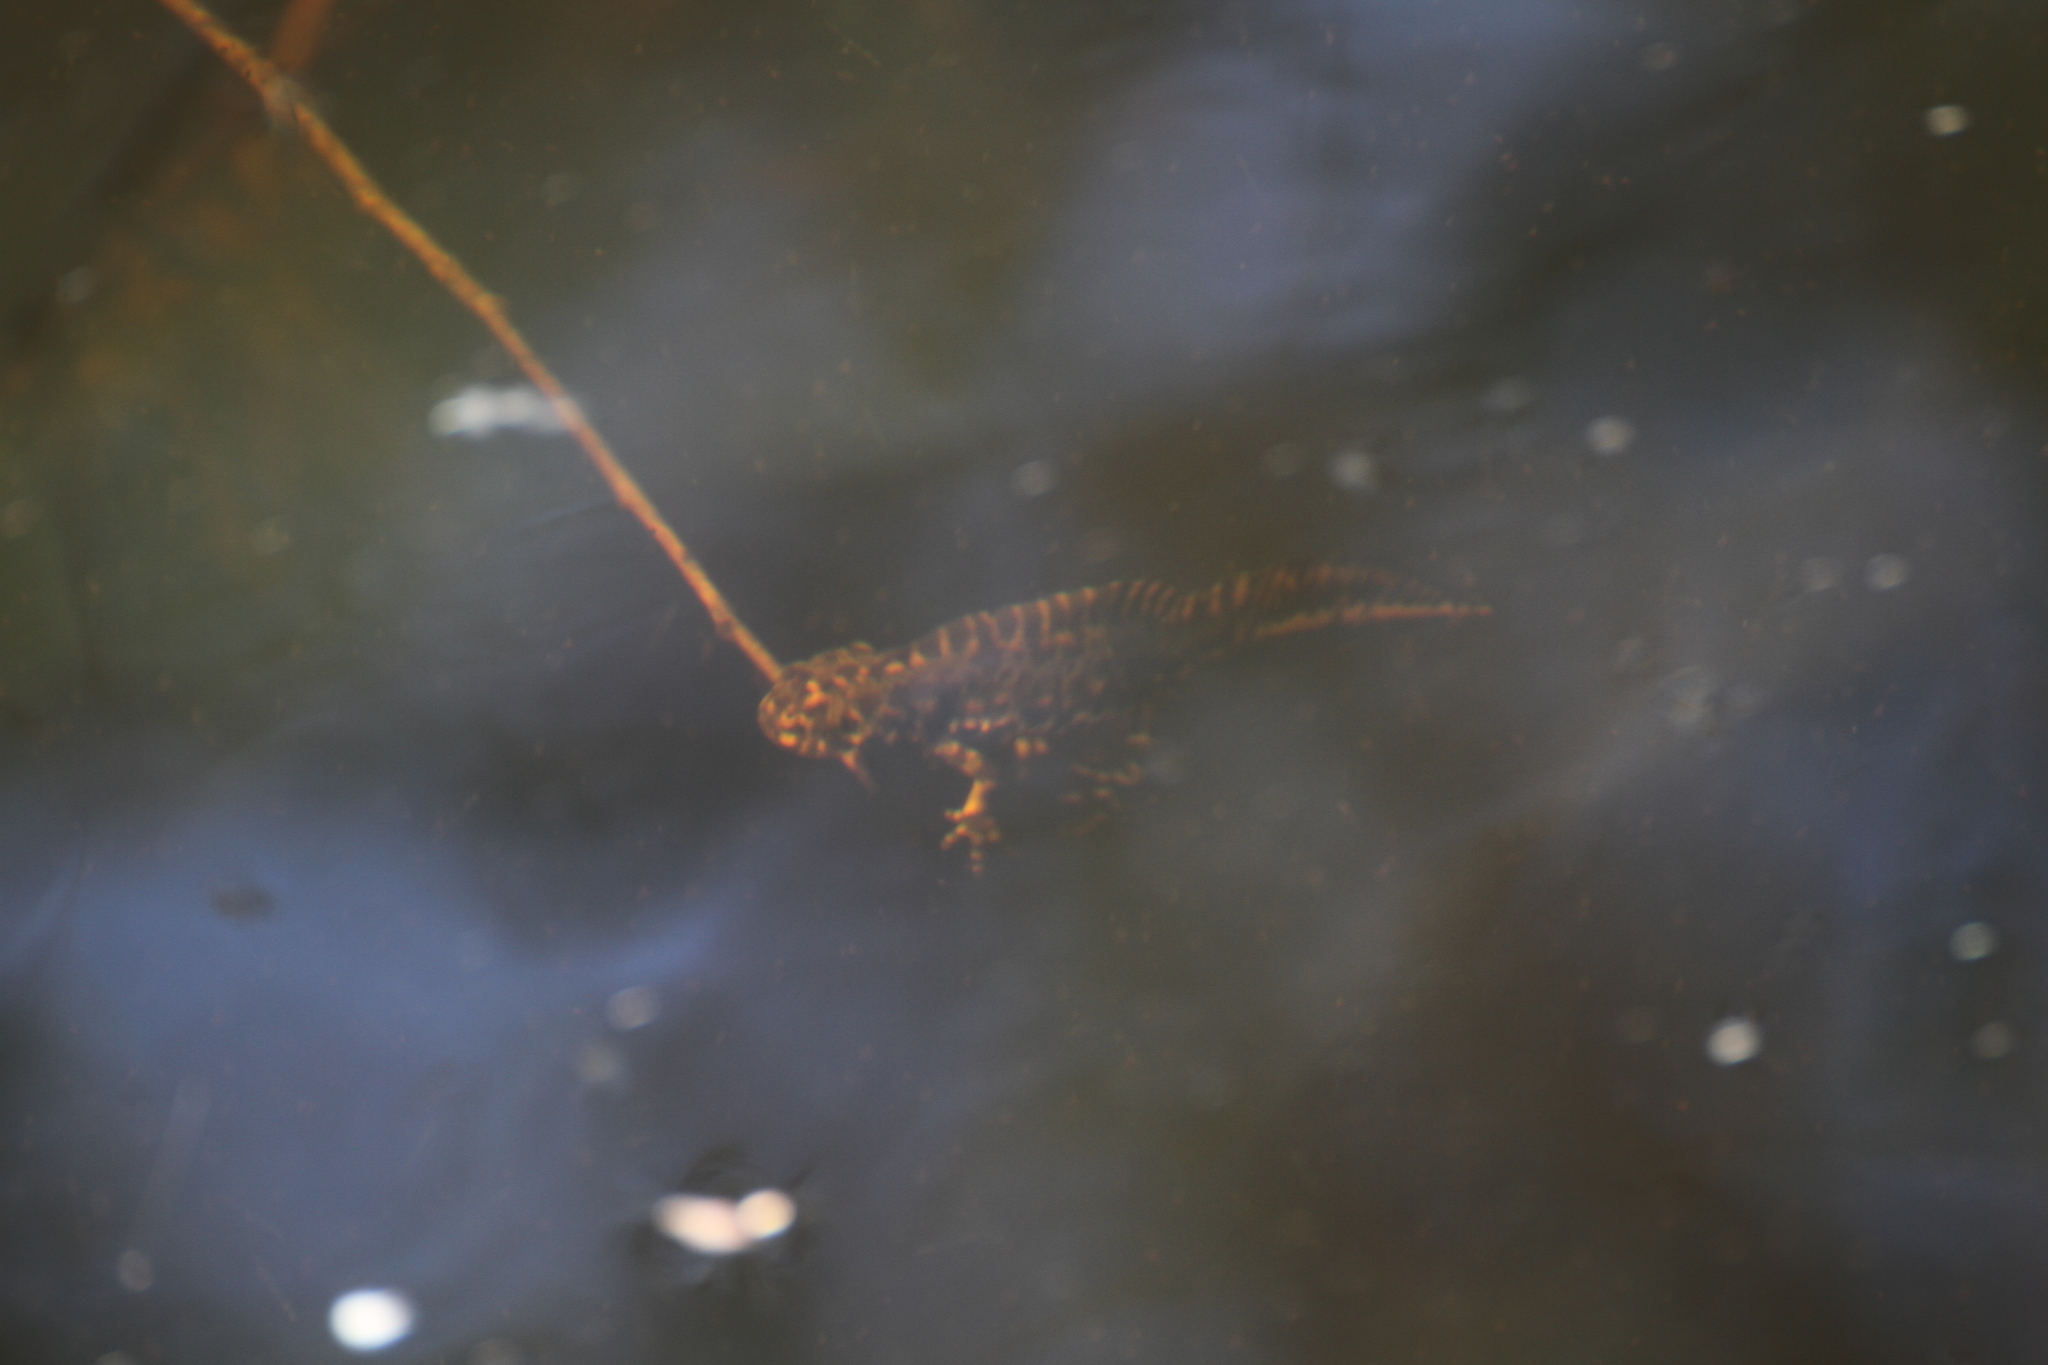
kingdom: Animalia
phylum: Chordata
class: Amphibia
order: Caudata
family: Salamandridae
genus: Triturus
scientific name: Triturus marmoratus
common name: Marbled newt
